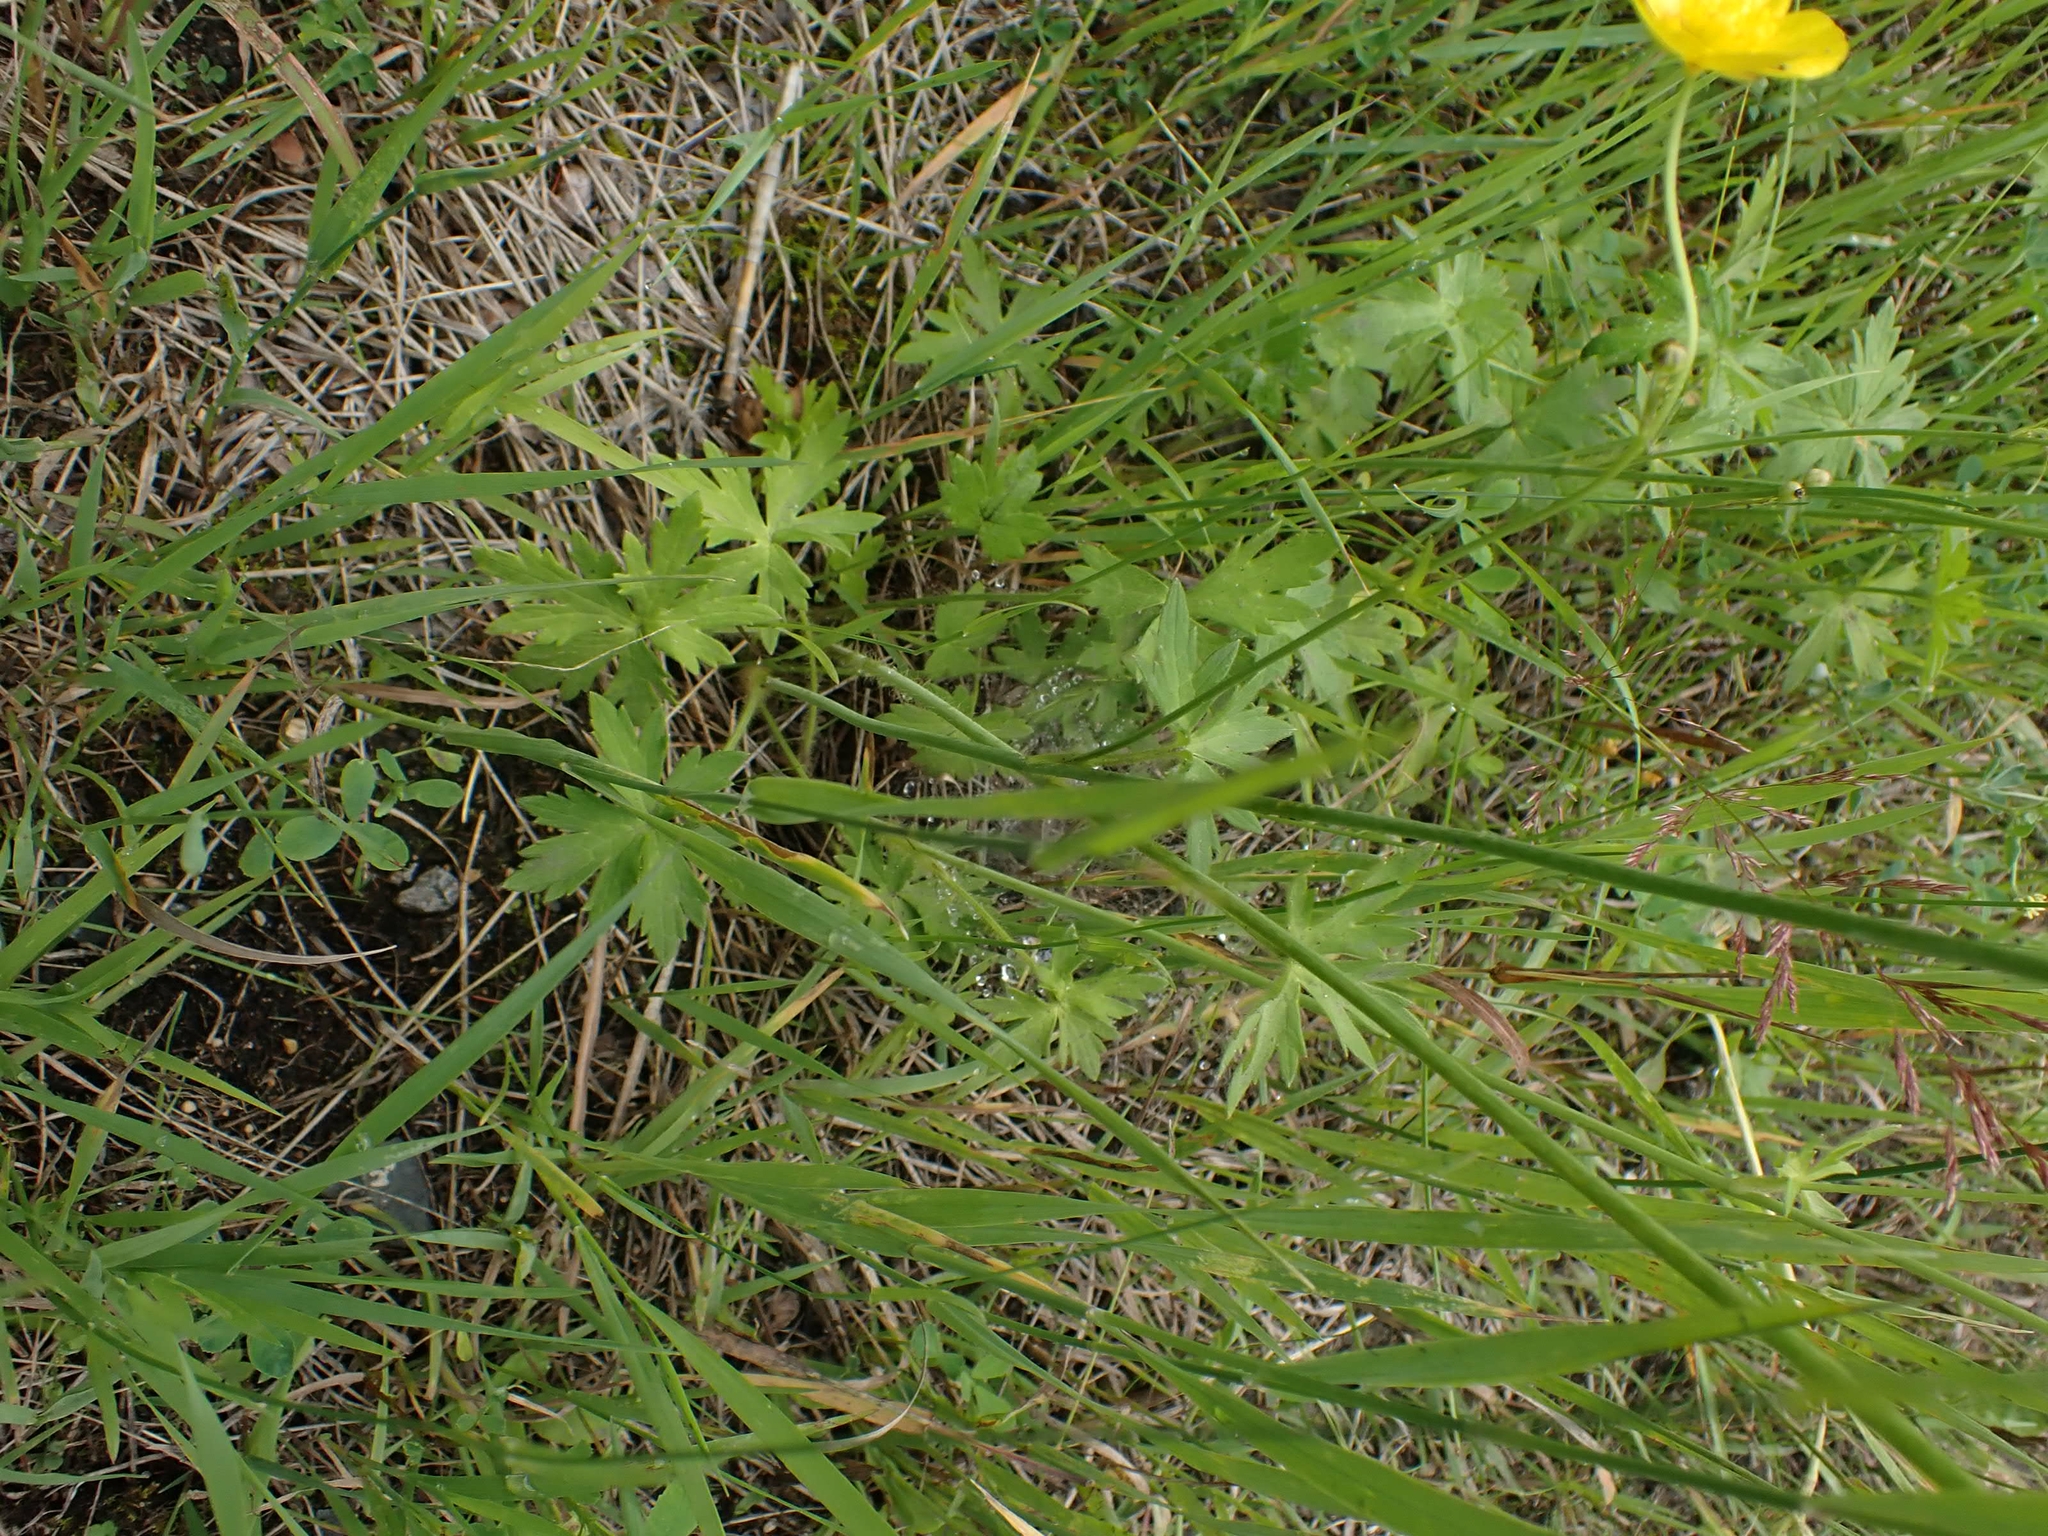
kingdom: Plantae
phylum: Tracheophyta
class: Magnoliopsida
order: Ranunculales
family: Ranunculaceae
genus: Ranunculus
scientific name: Ranunculus acris
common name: Meadow buttercup
